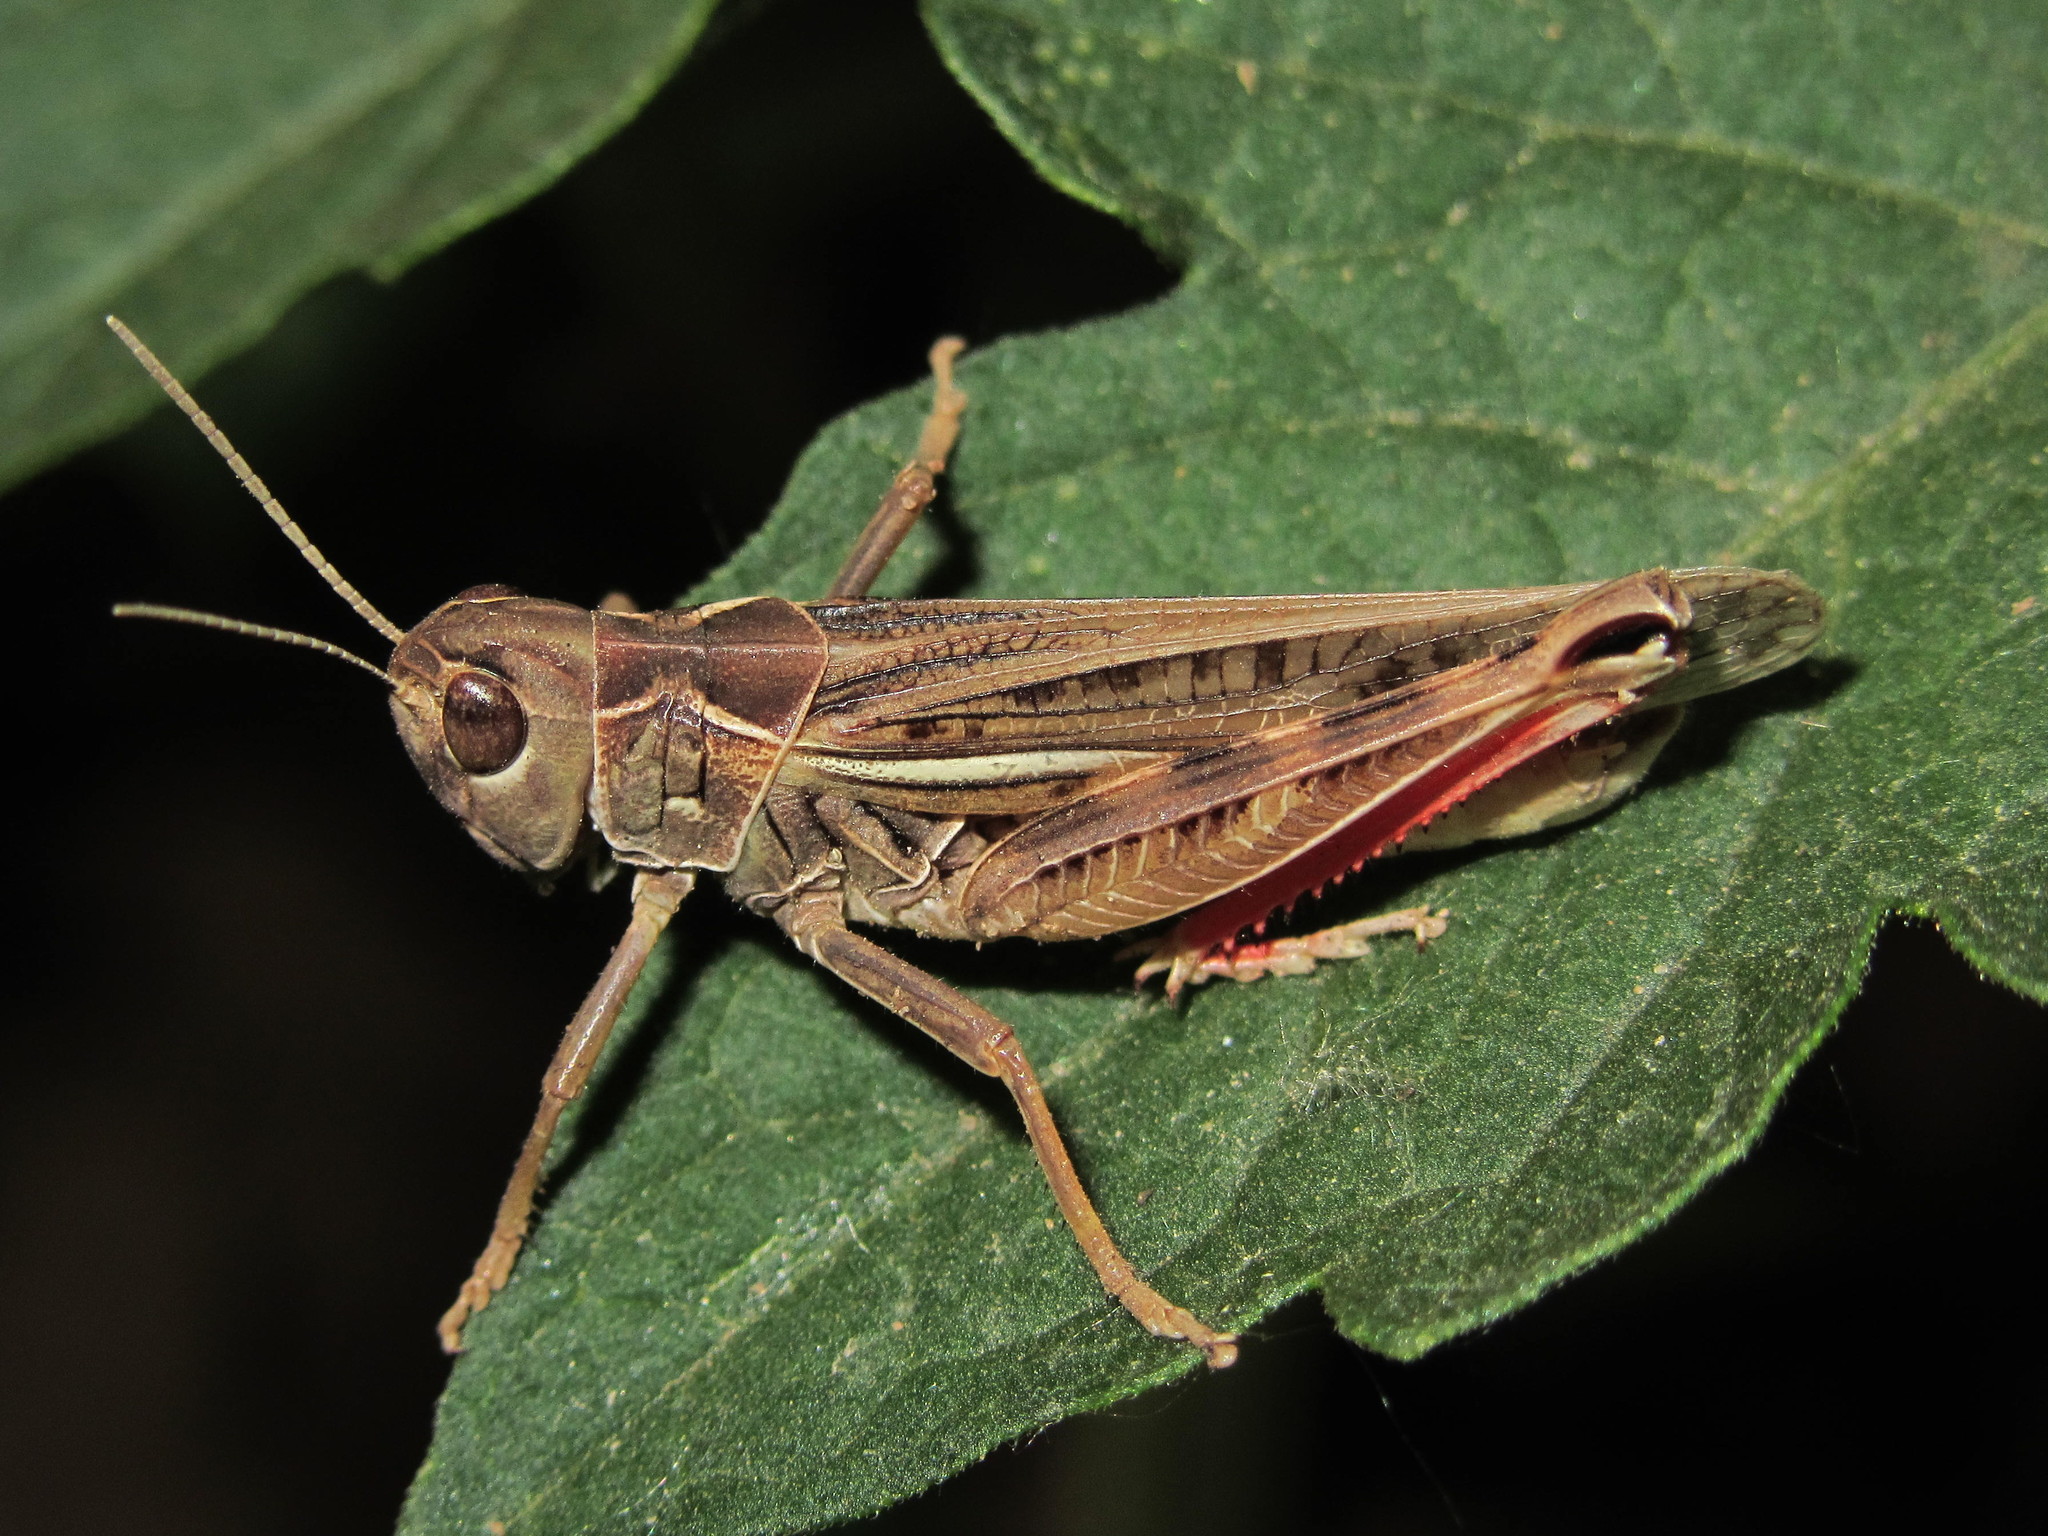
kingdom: Animalia
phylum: Arthropoda
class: Insecta
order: Orthoptera
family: Acrididae
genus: Arcyptera
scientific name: Arcyptera microptera
